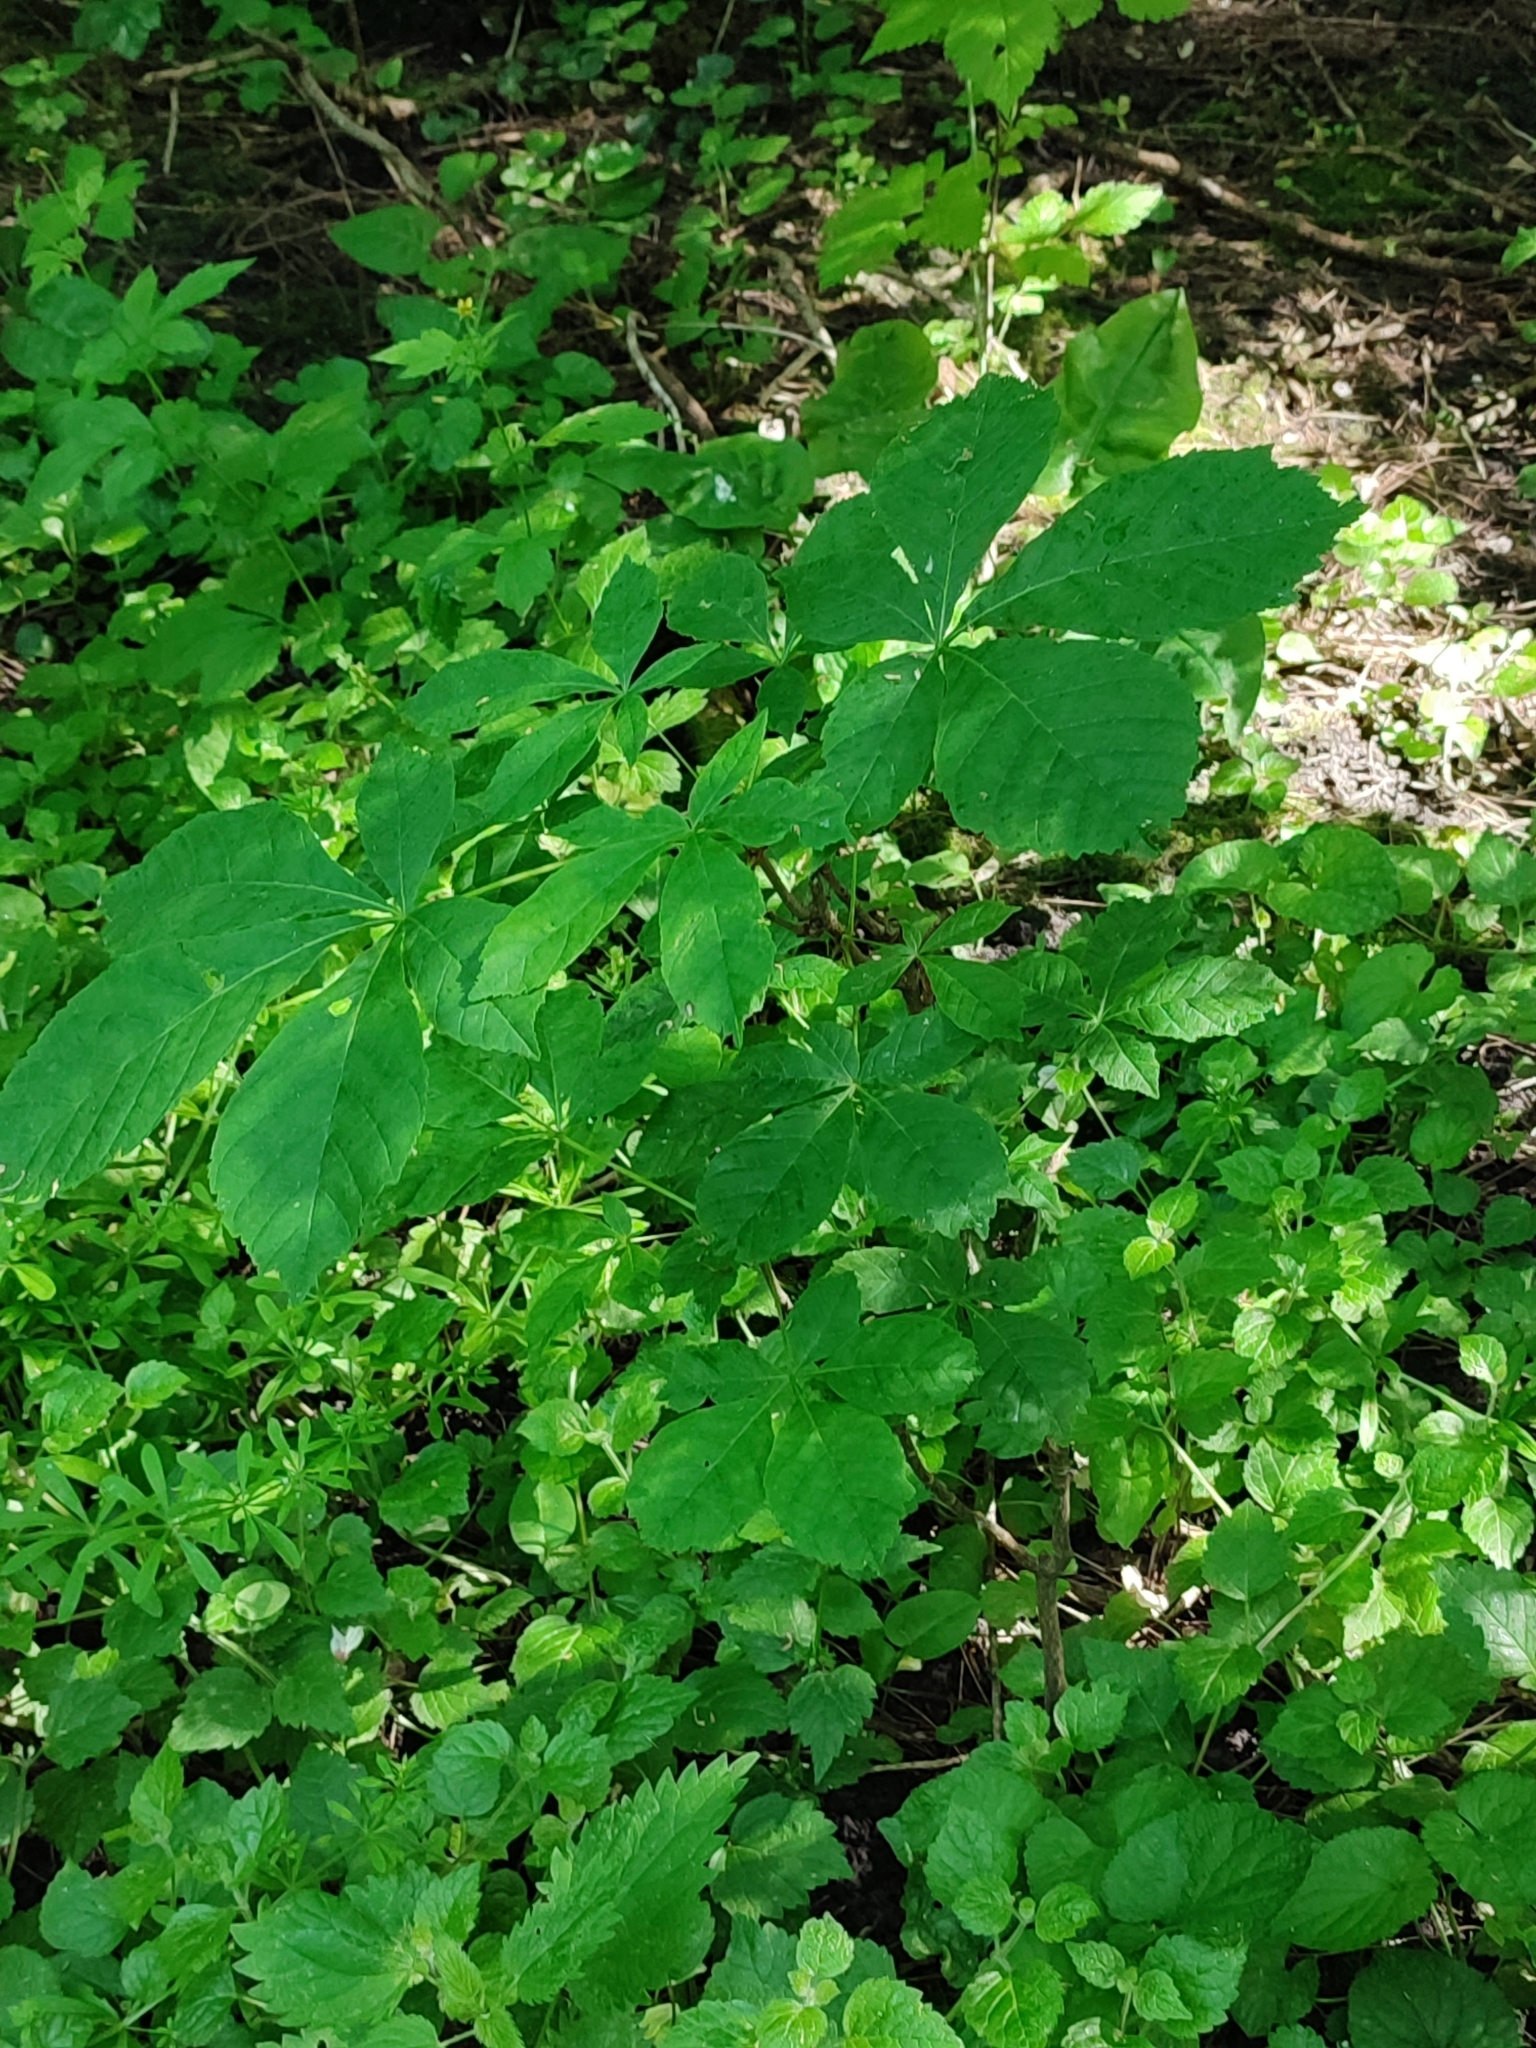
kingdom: Plantae
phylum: Tracheophyta
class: Magnoliopsida
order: Sapindales
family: Sapindaceae
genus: Aesculus
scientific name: Aesculus hippocastanum
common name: Horse-chestnut
